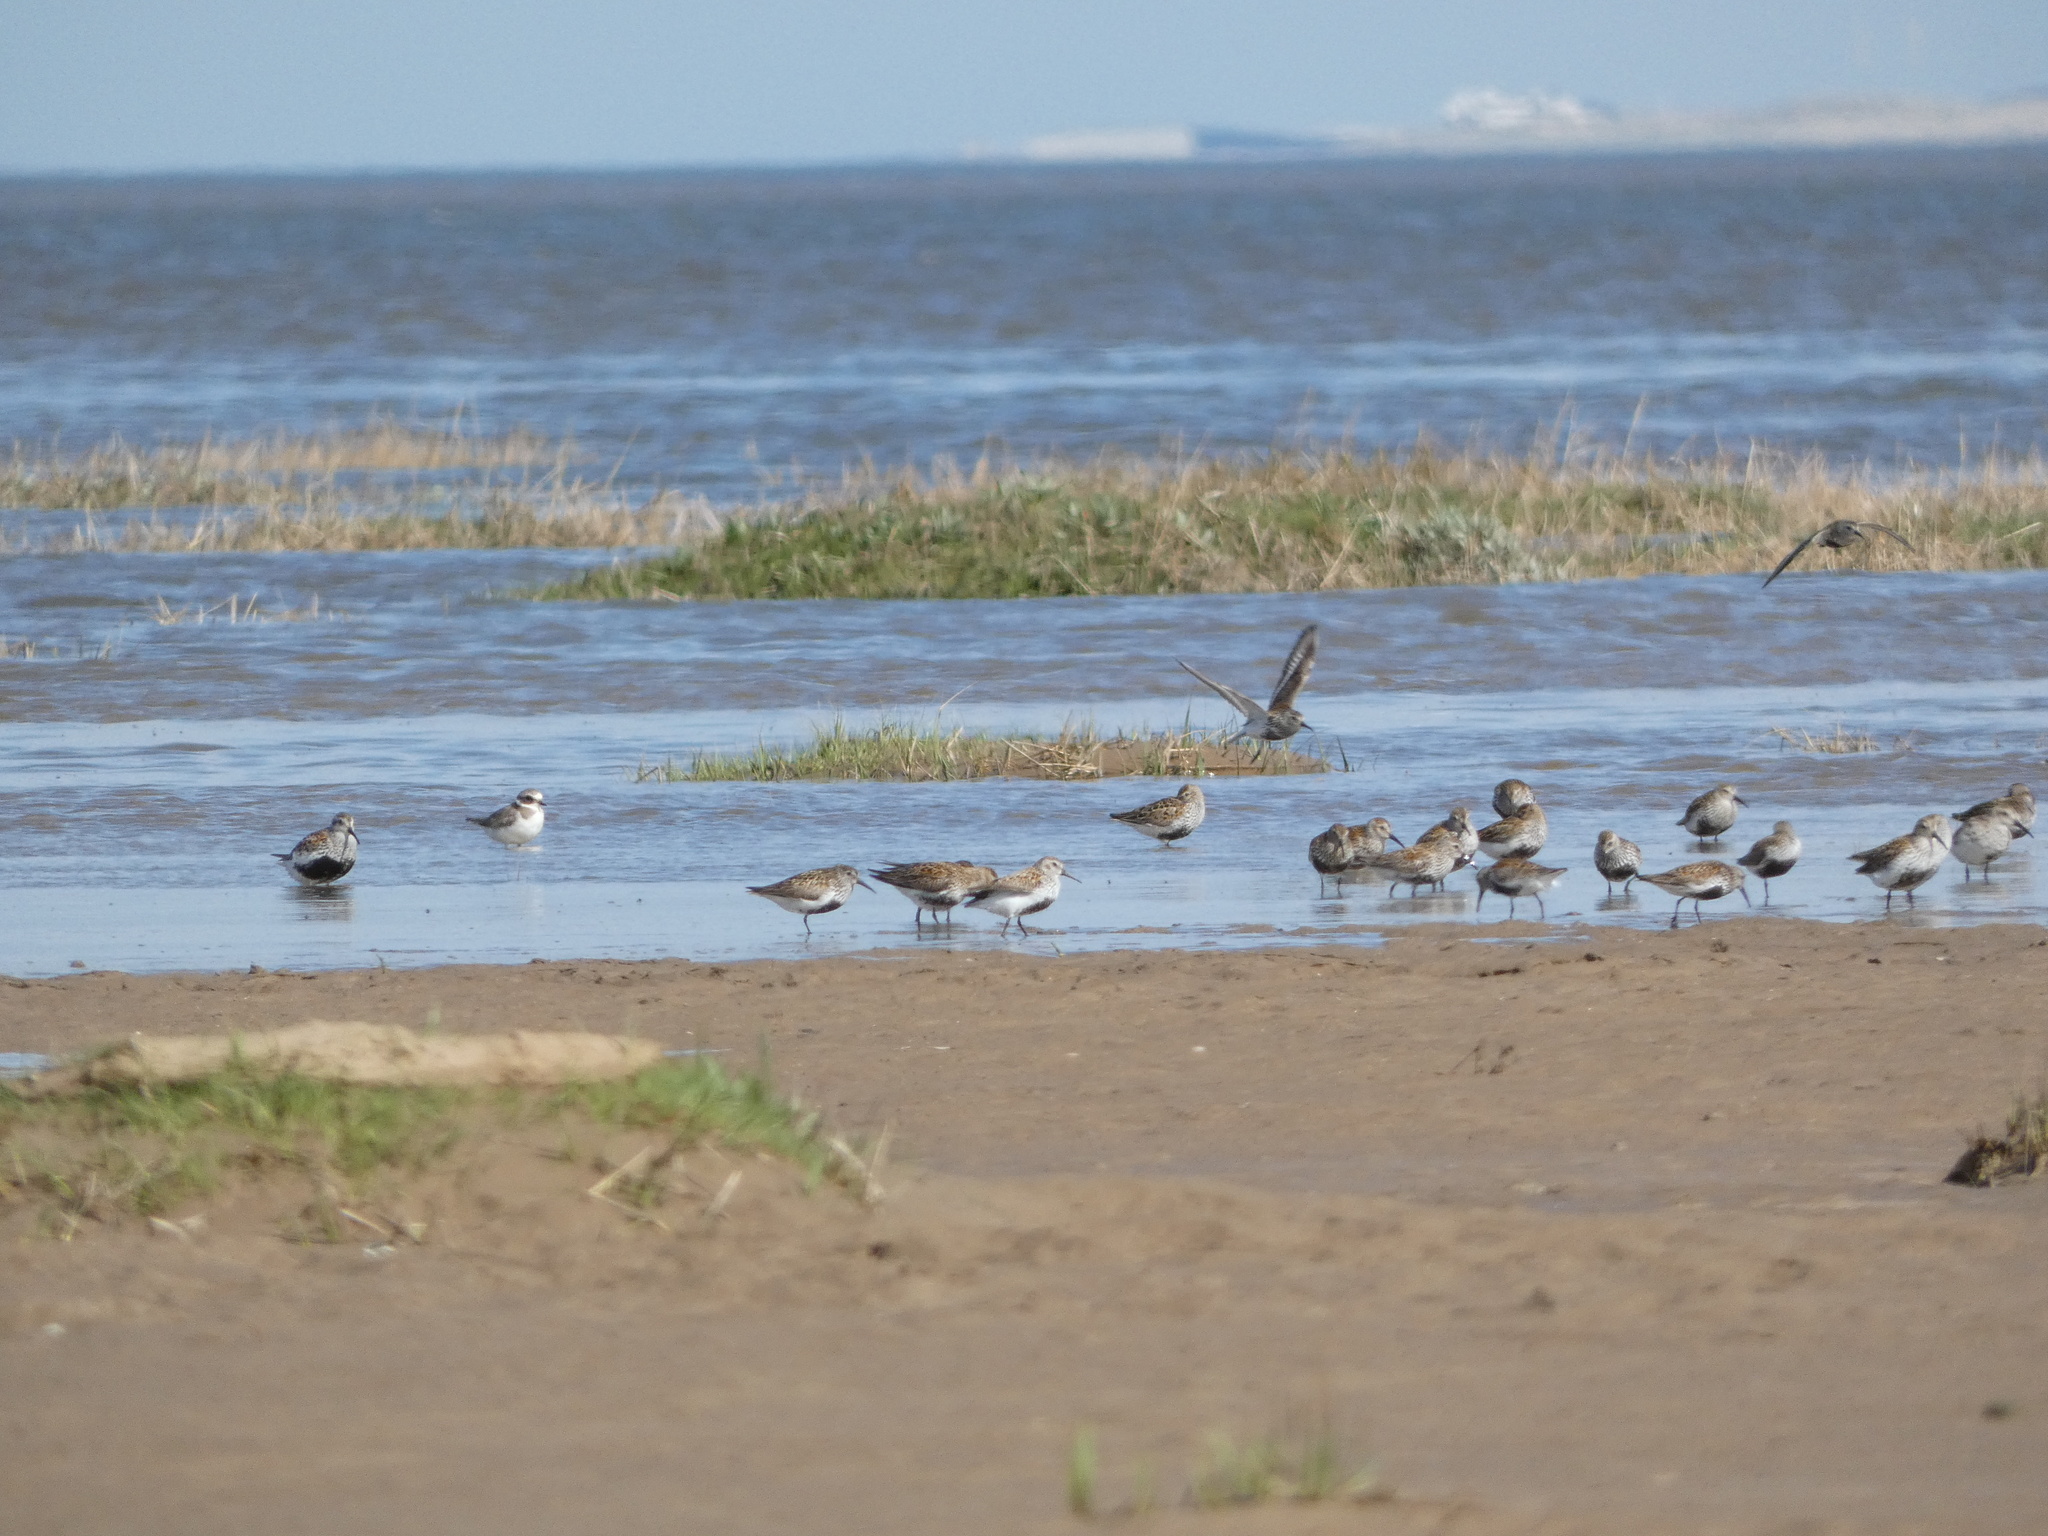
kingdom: Animalia
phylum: Chordata
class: Aves
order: Charadriiformes
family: Charadriidae
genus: Charadrius
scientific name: Charadrius hiaticula
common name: Common ringed plover
